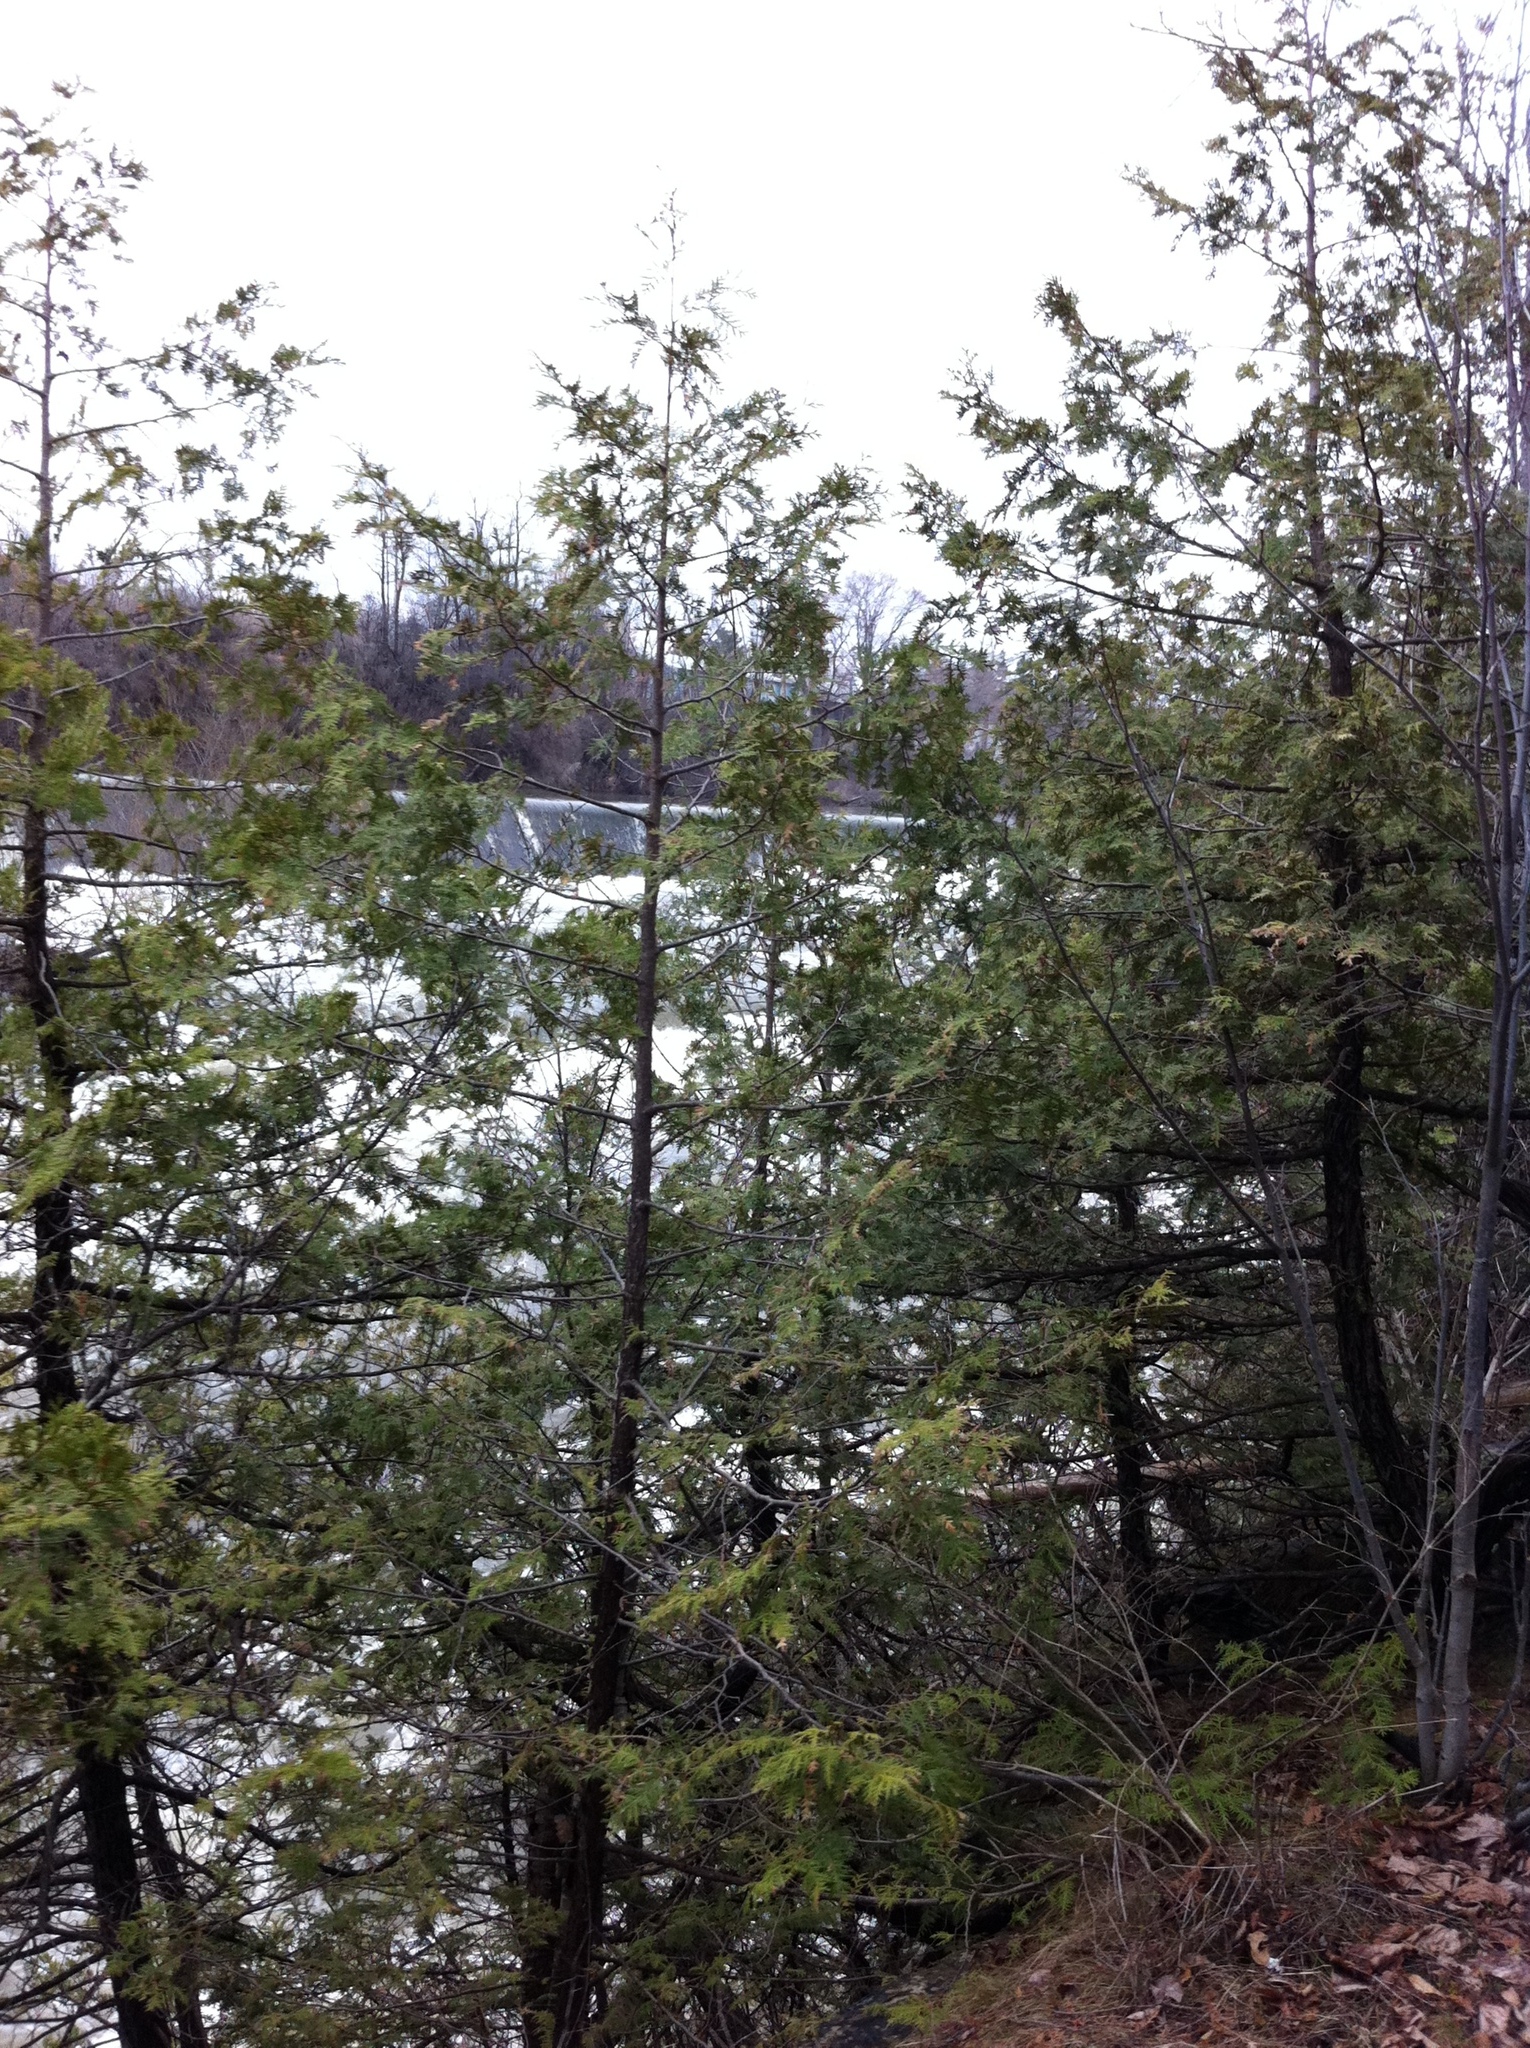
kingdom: Plantae
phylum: Tracheophyta
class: Pinopsida
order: Pinales
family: Cupressaceae
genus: Thuja
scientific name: Thuja occidentalis
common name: Northern white-cedar
